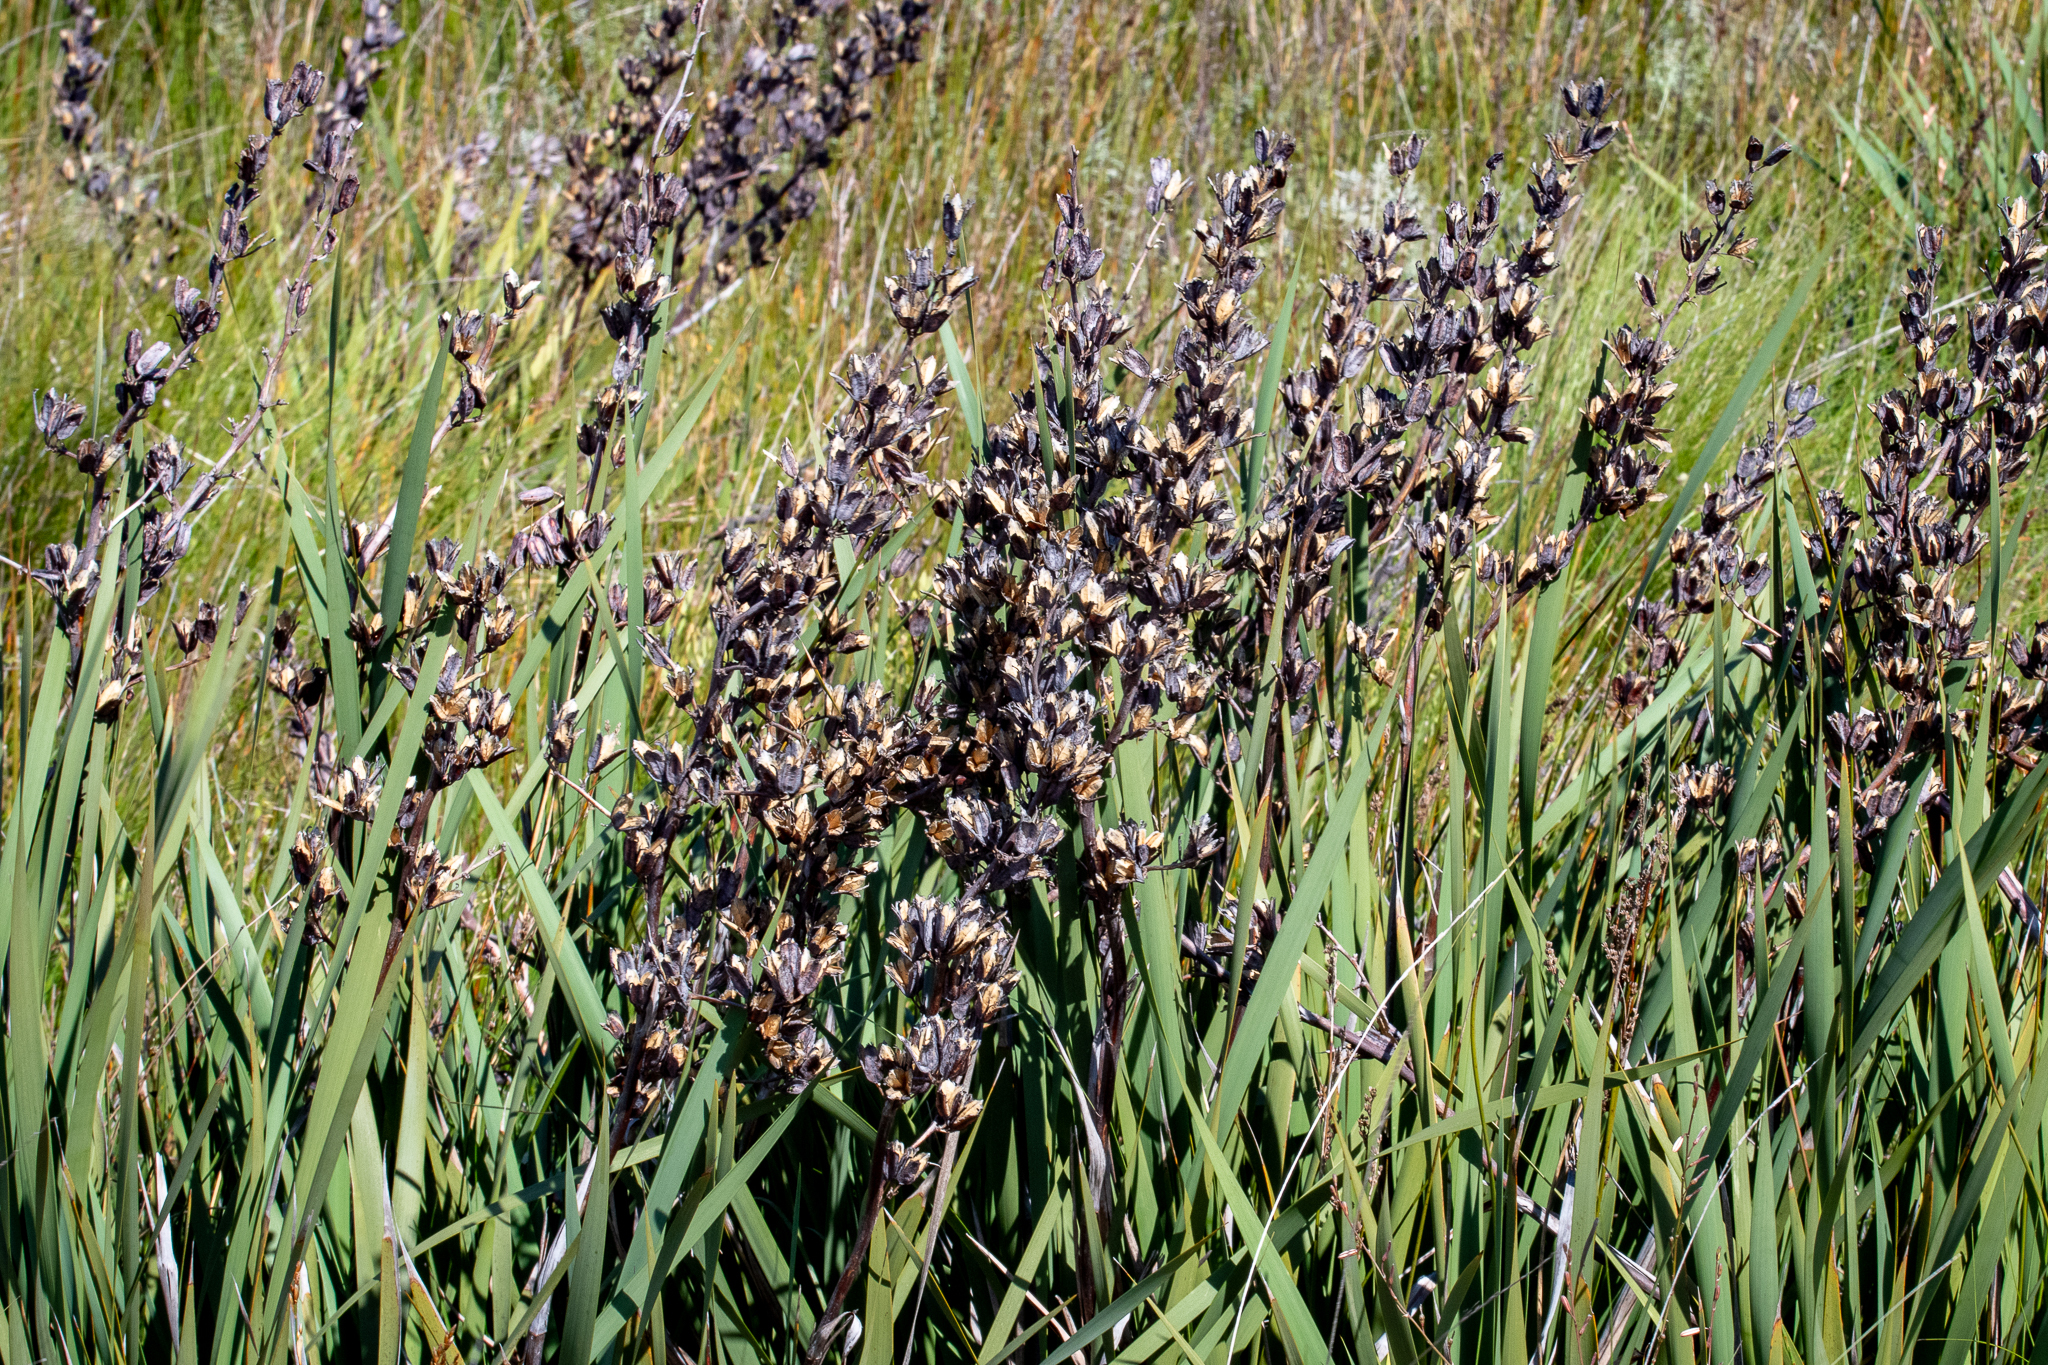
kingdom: Plantae
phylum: Tracheophyta
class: Liliopsida
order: Asparagales
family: Iridaceae
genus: Aristea
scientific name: Aristea bakeri
